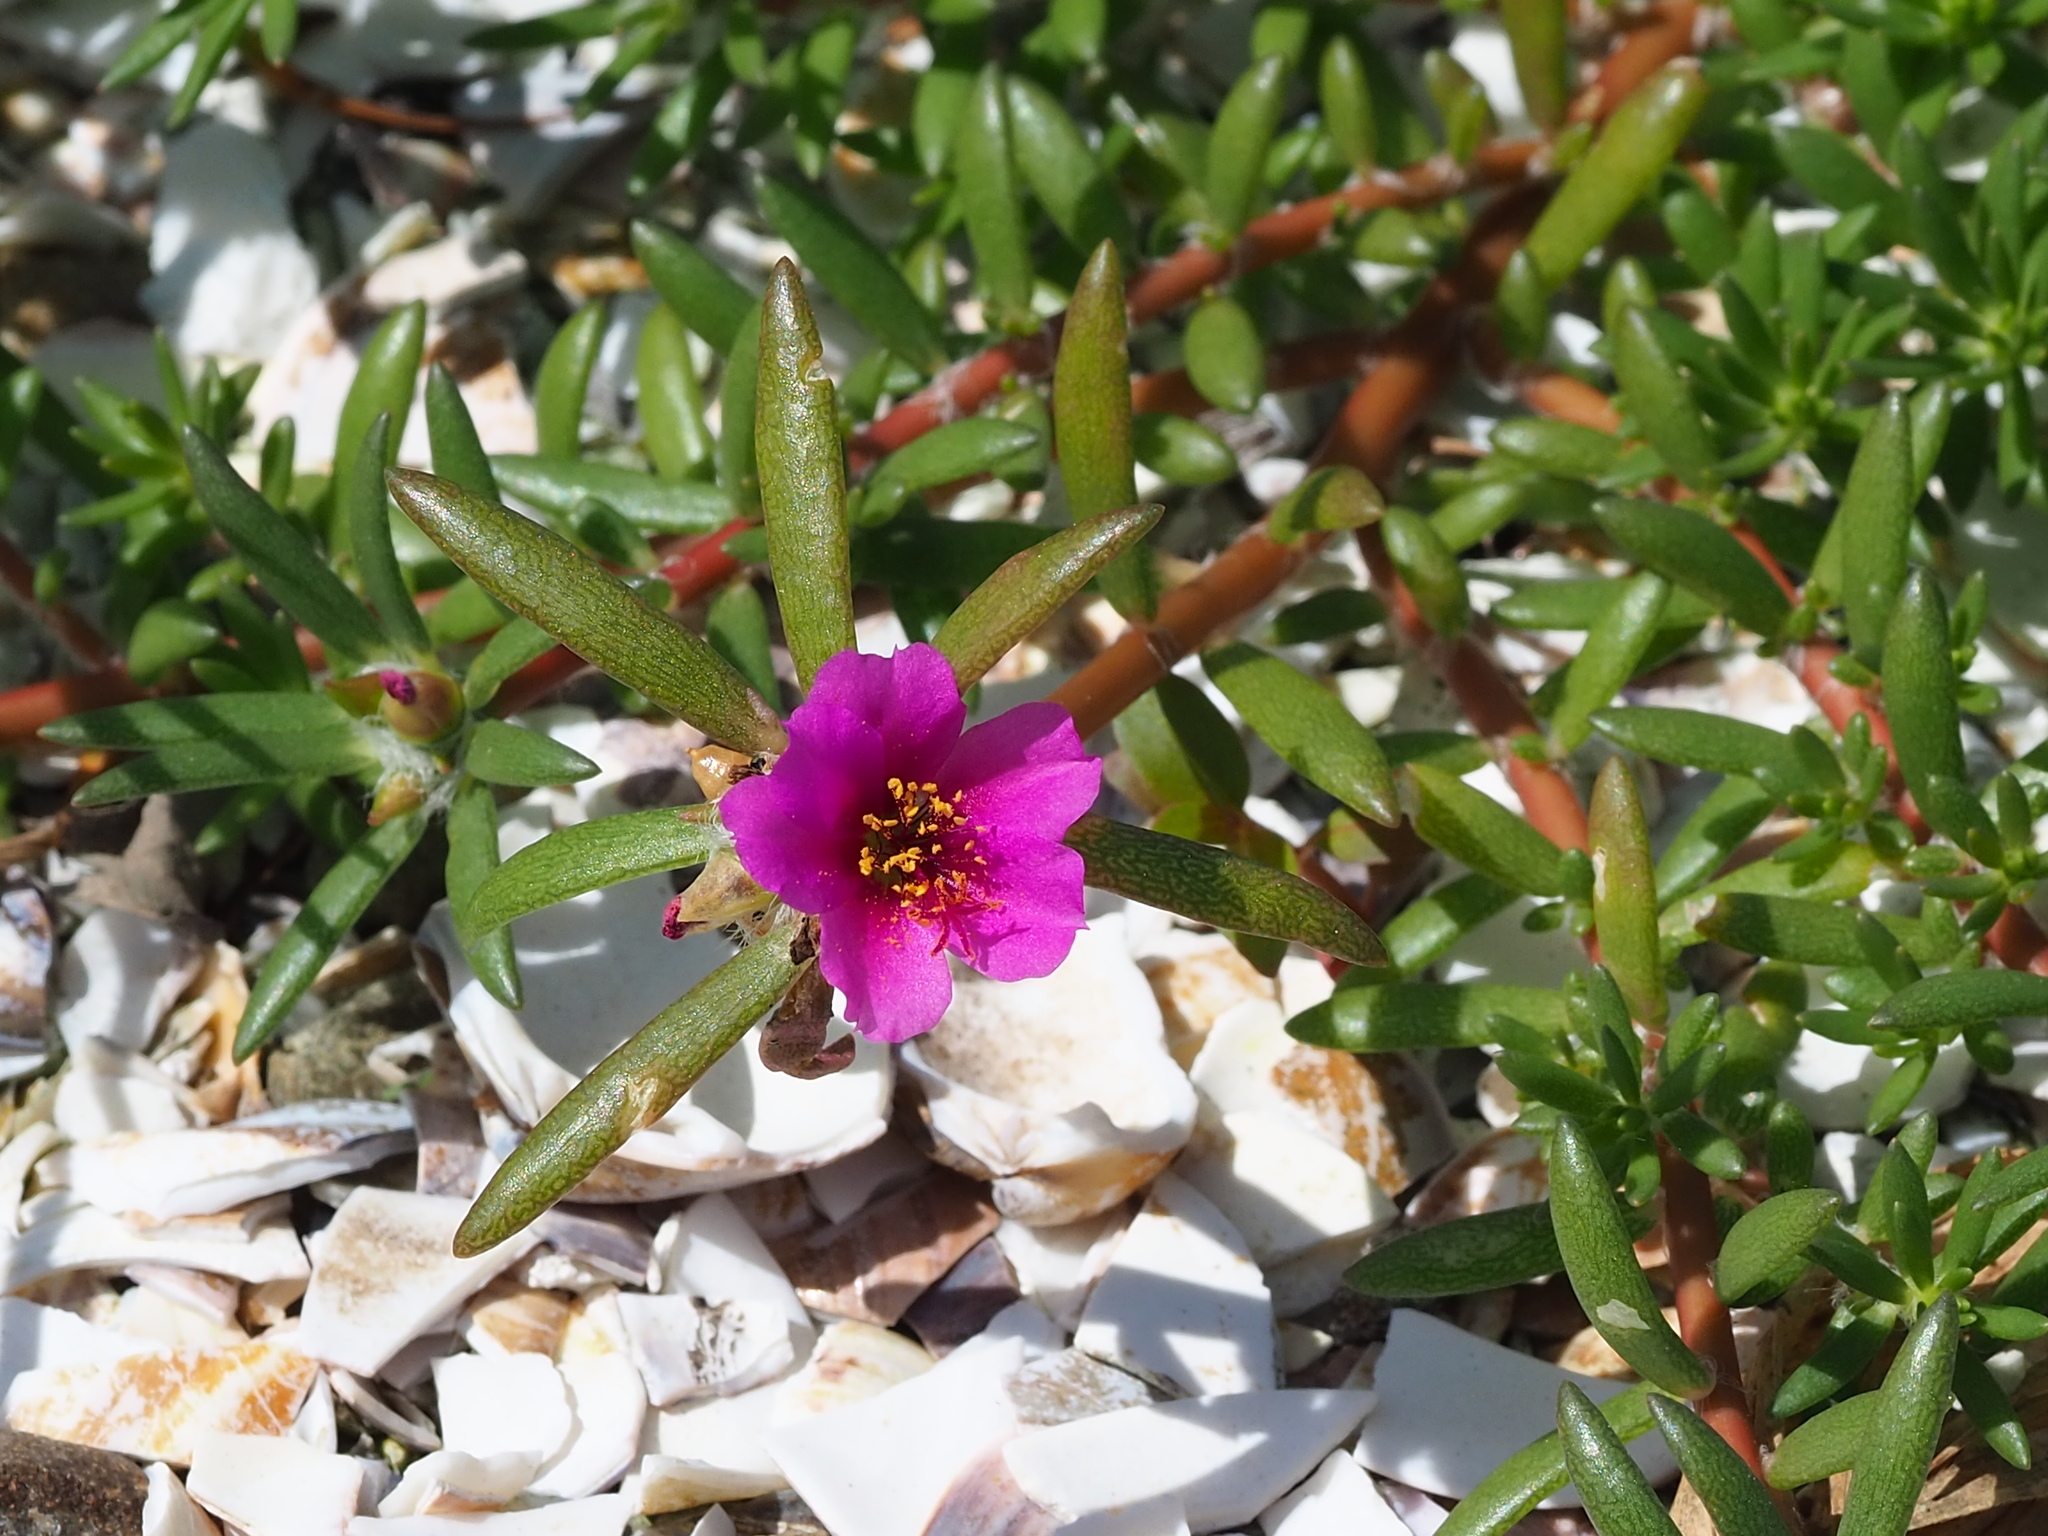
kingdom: Plantae
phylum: Tracheophyta
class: Magnoliopsida
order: Caryophyllales
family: Portulacaceae
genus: Portulaca
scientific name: Portulaca pilosa
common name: Kiss me quick
